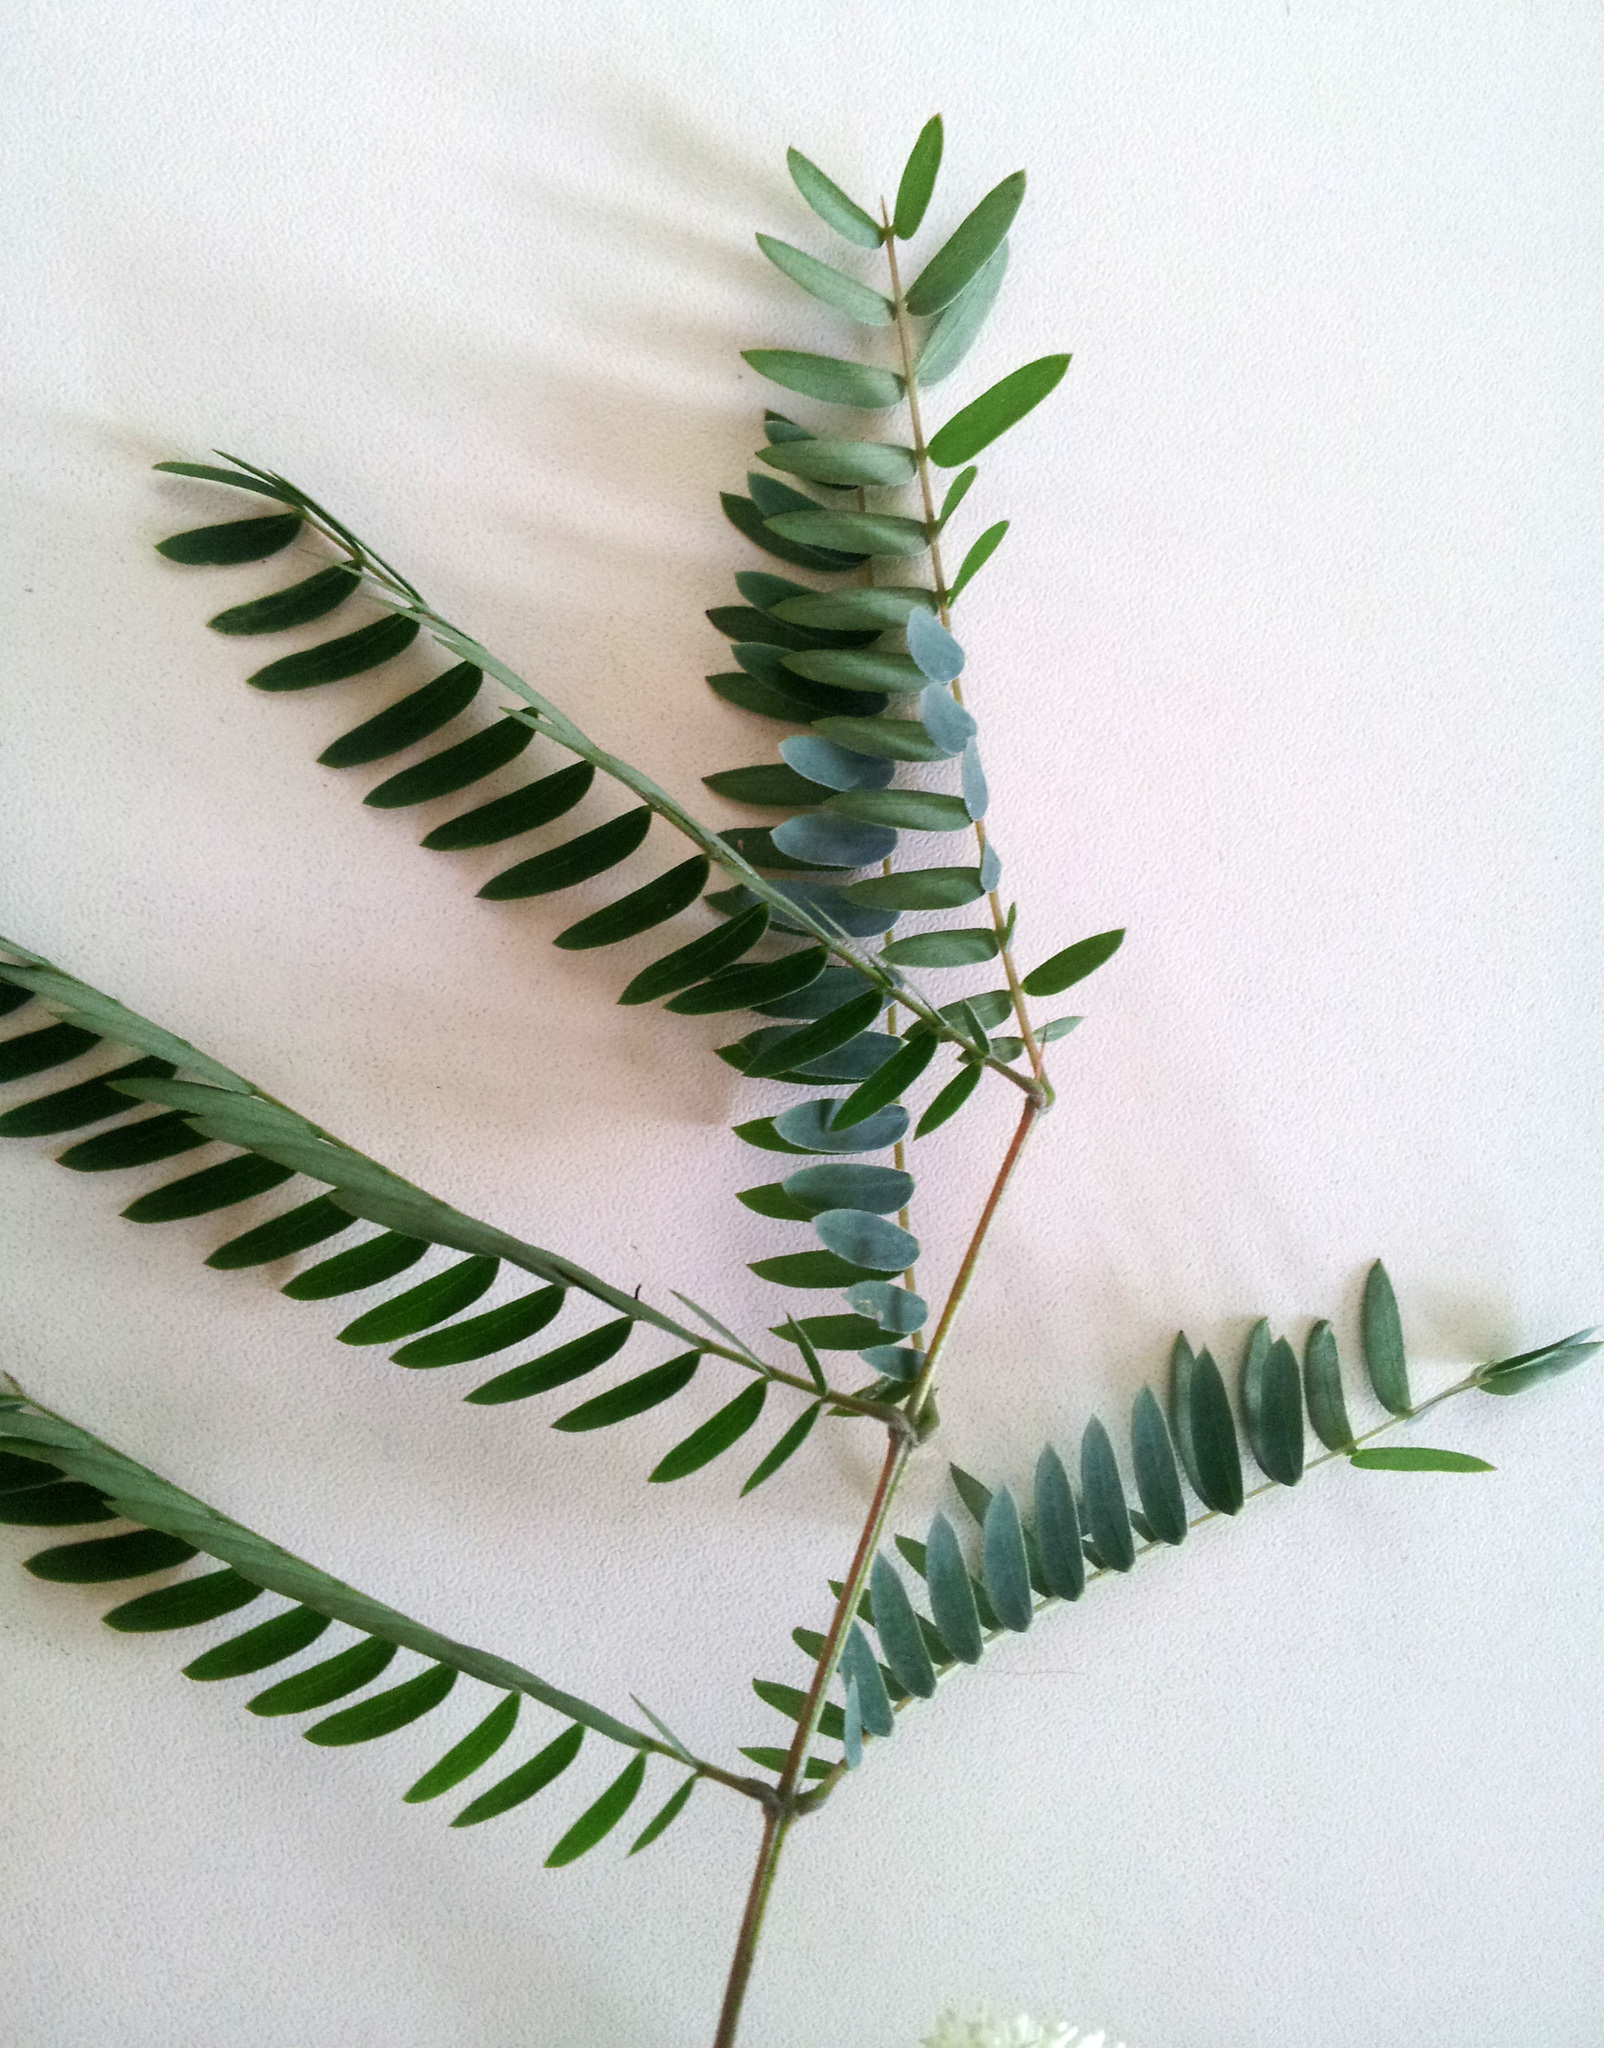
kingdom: Plantae
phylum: Tracheophyta
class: Magnoliopsida
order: Fabales
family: Fabaceae
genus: Leucaena
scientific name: Leucaena leucocephala
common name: White leadtree
